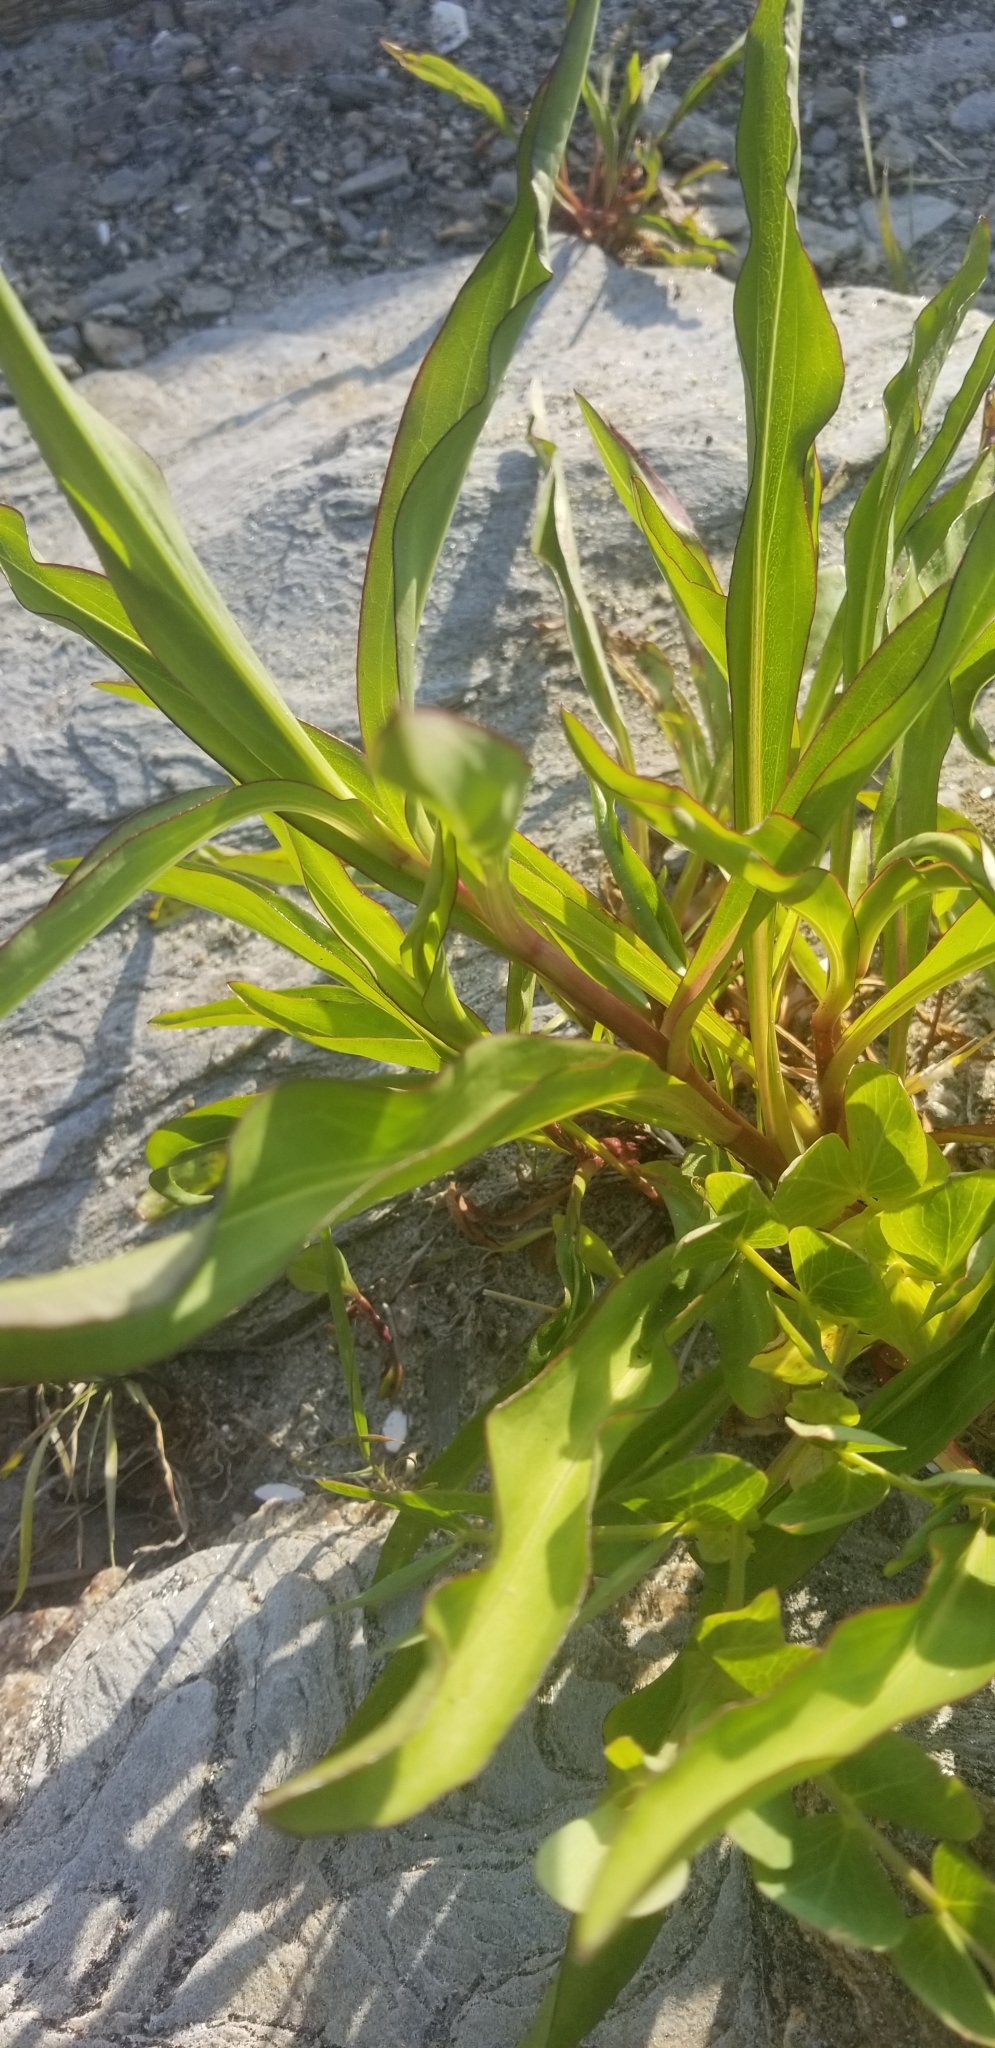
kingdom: Plantae
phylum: Tracheophyta
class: Magnoliopsida
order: Asterales
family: Asteraceae
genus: Solidago
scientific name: Solidago sempervirens
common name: Salt-marsh goldenrod
